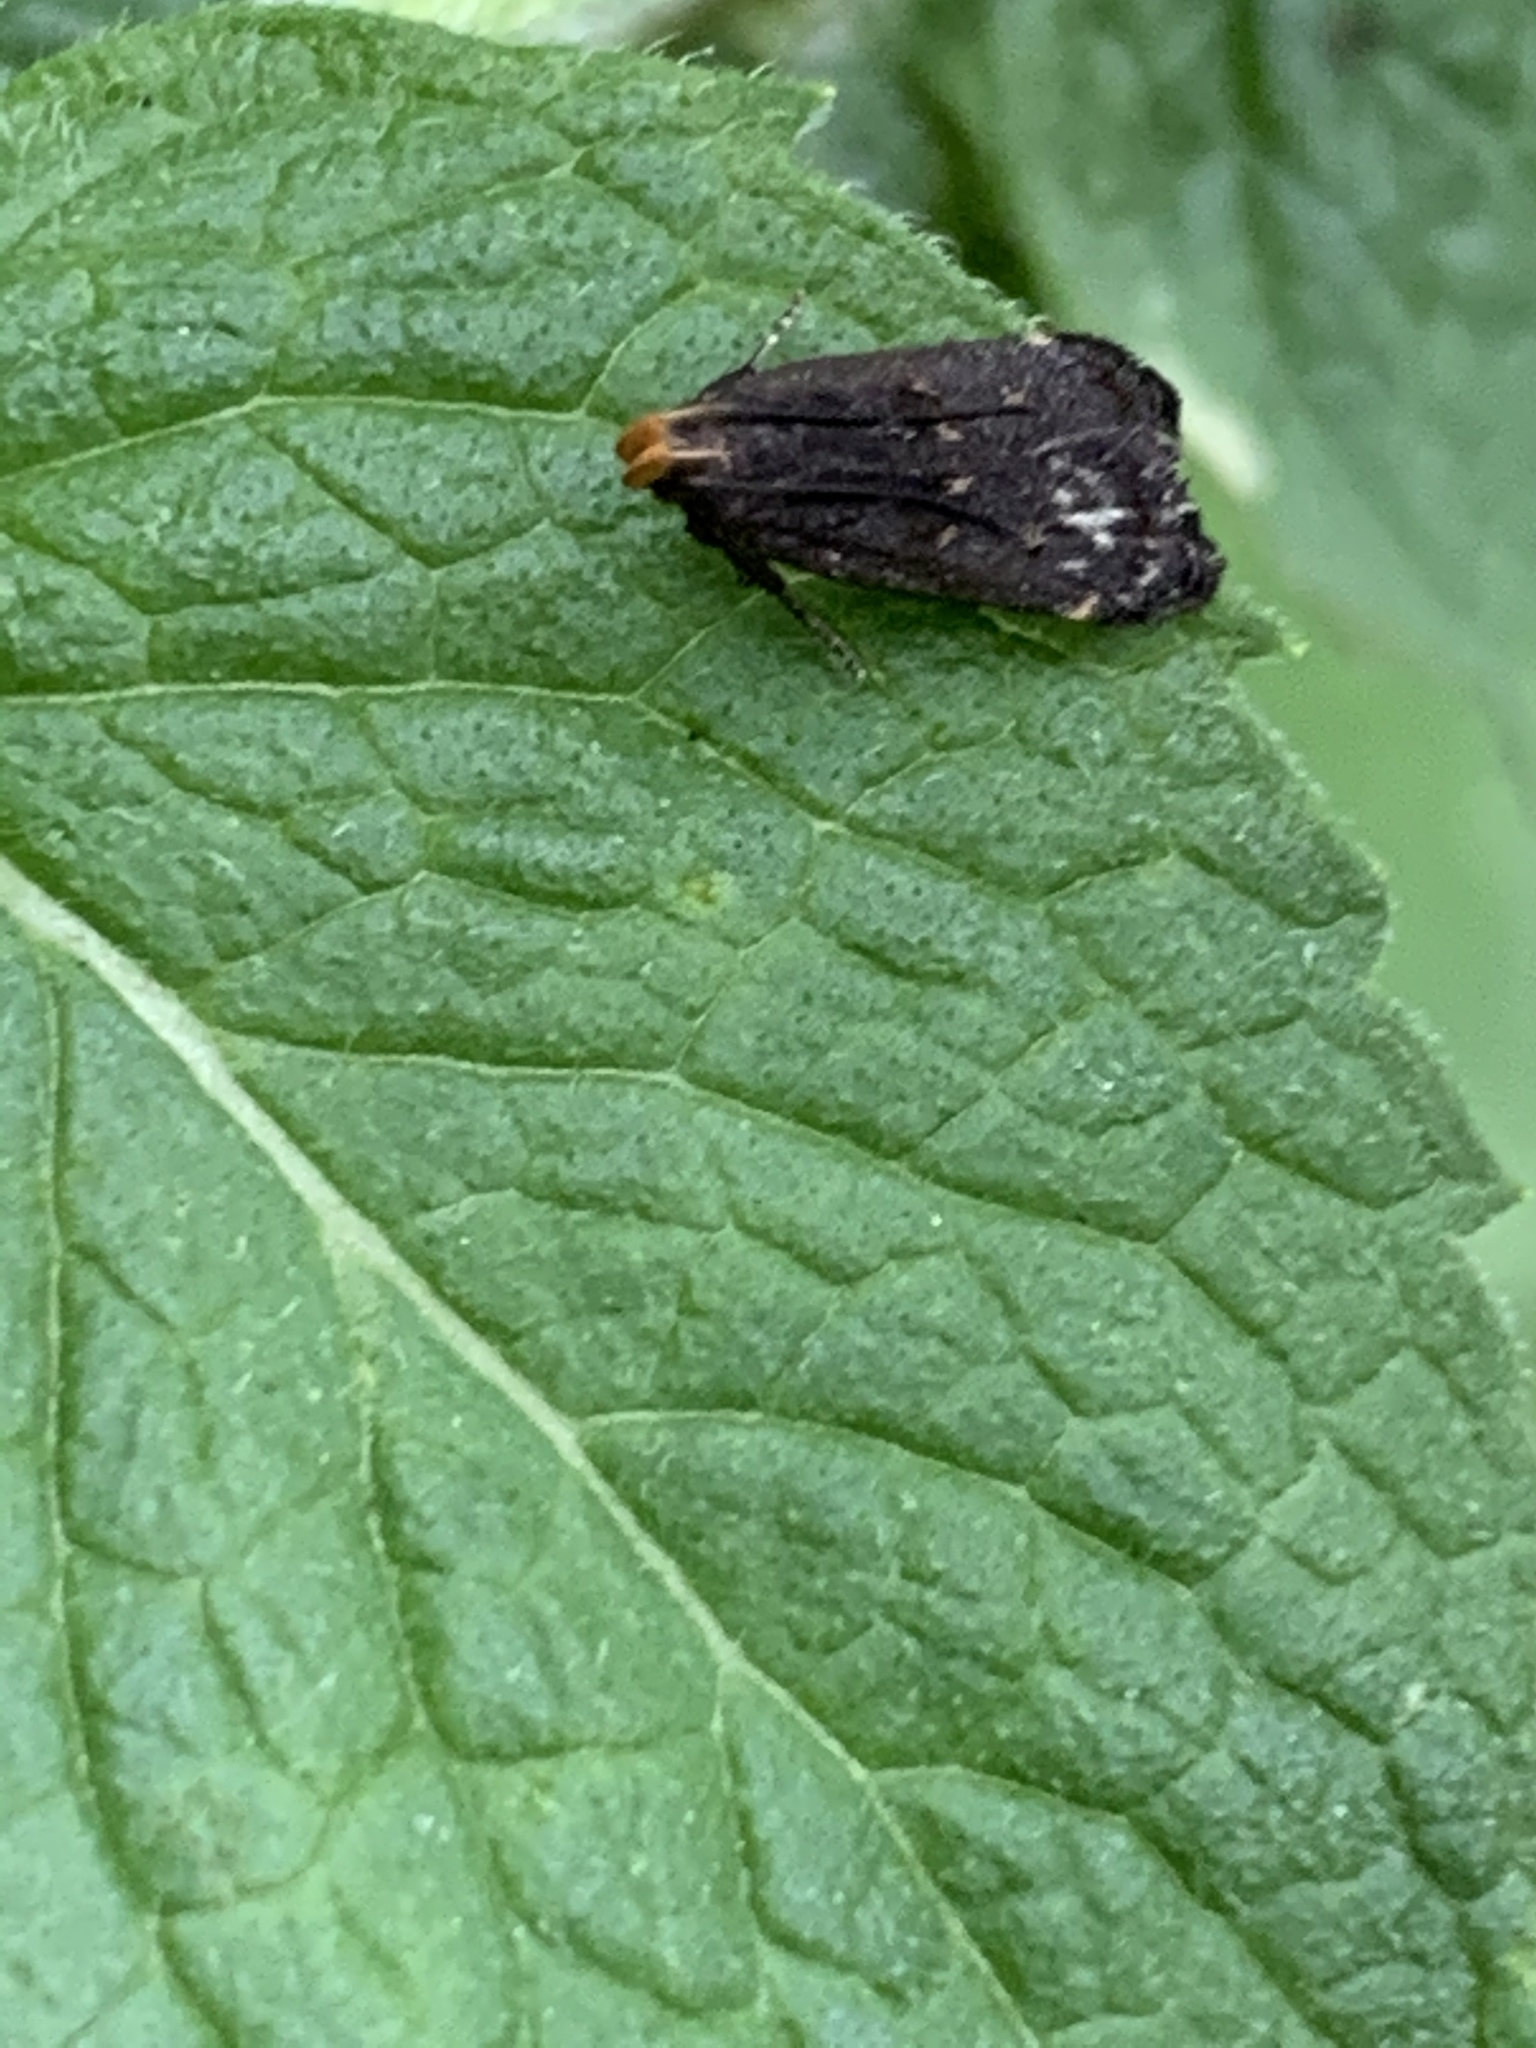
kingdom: Animalia
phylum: Arthropoda
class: Insecta
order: Lepidoptera
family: Gelechiidae
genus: Dichomeris
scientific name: Dichomeris juncidella
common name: Orange-dotted dichomeris moth
